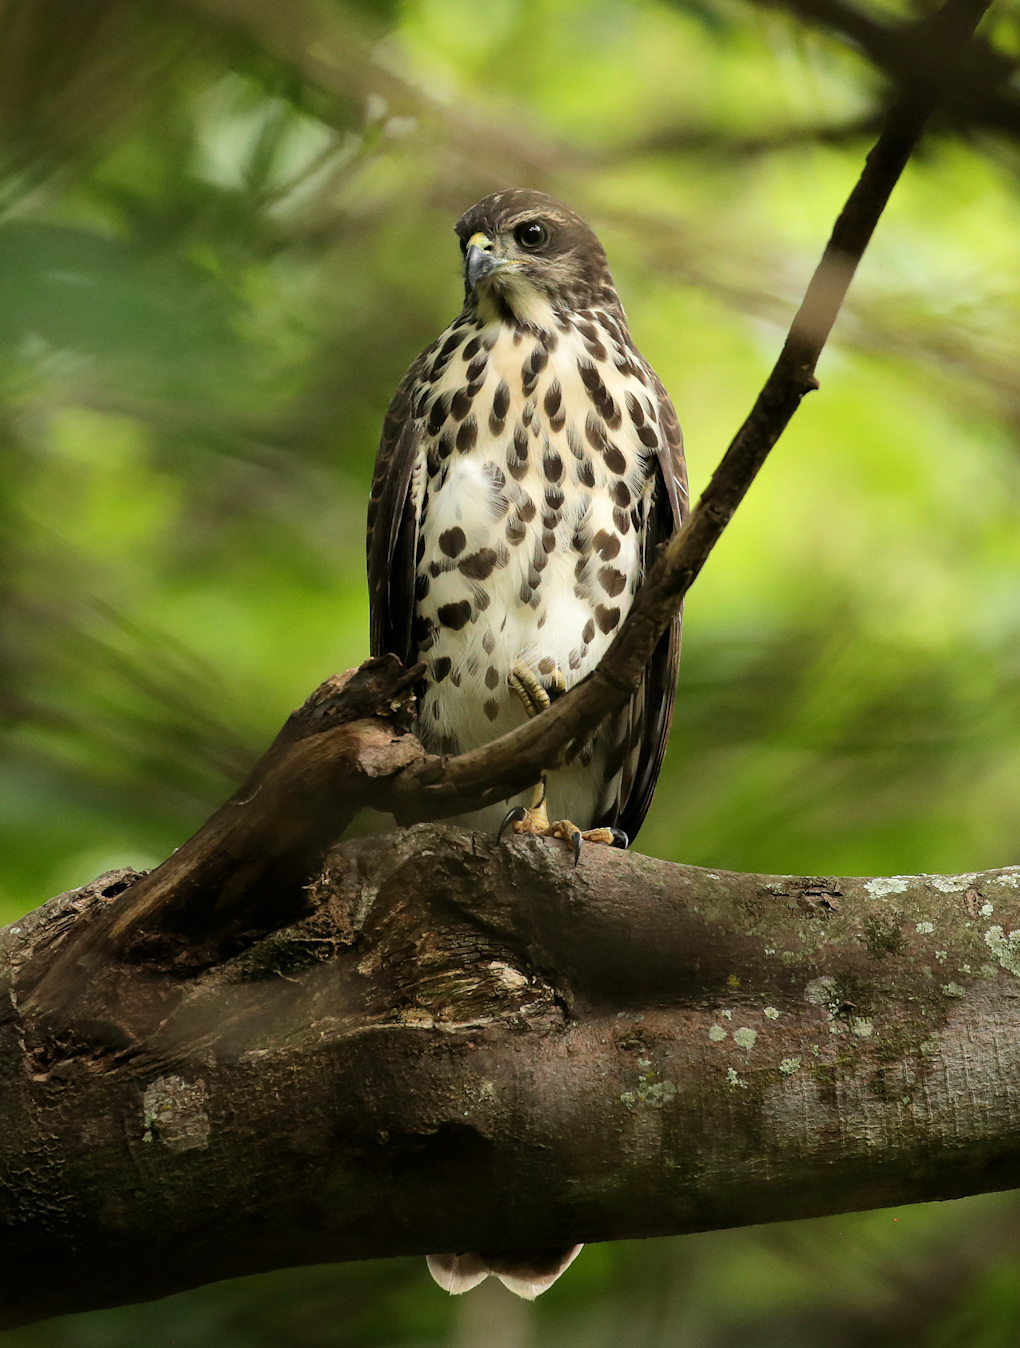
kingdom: Animalia
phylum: Chordata
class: Aves
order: Accipitriformes
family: Accipitridae
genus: Accipiter
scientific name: Accipiter tachiro
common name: African goshawk
